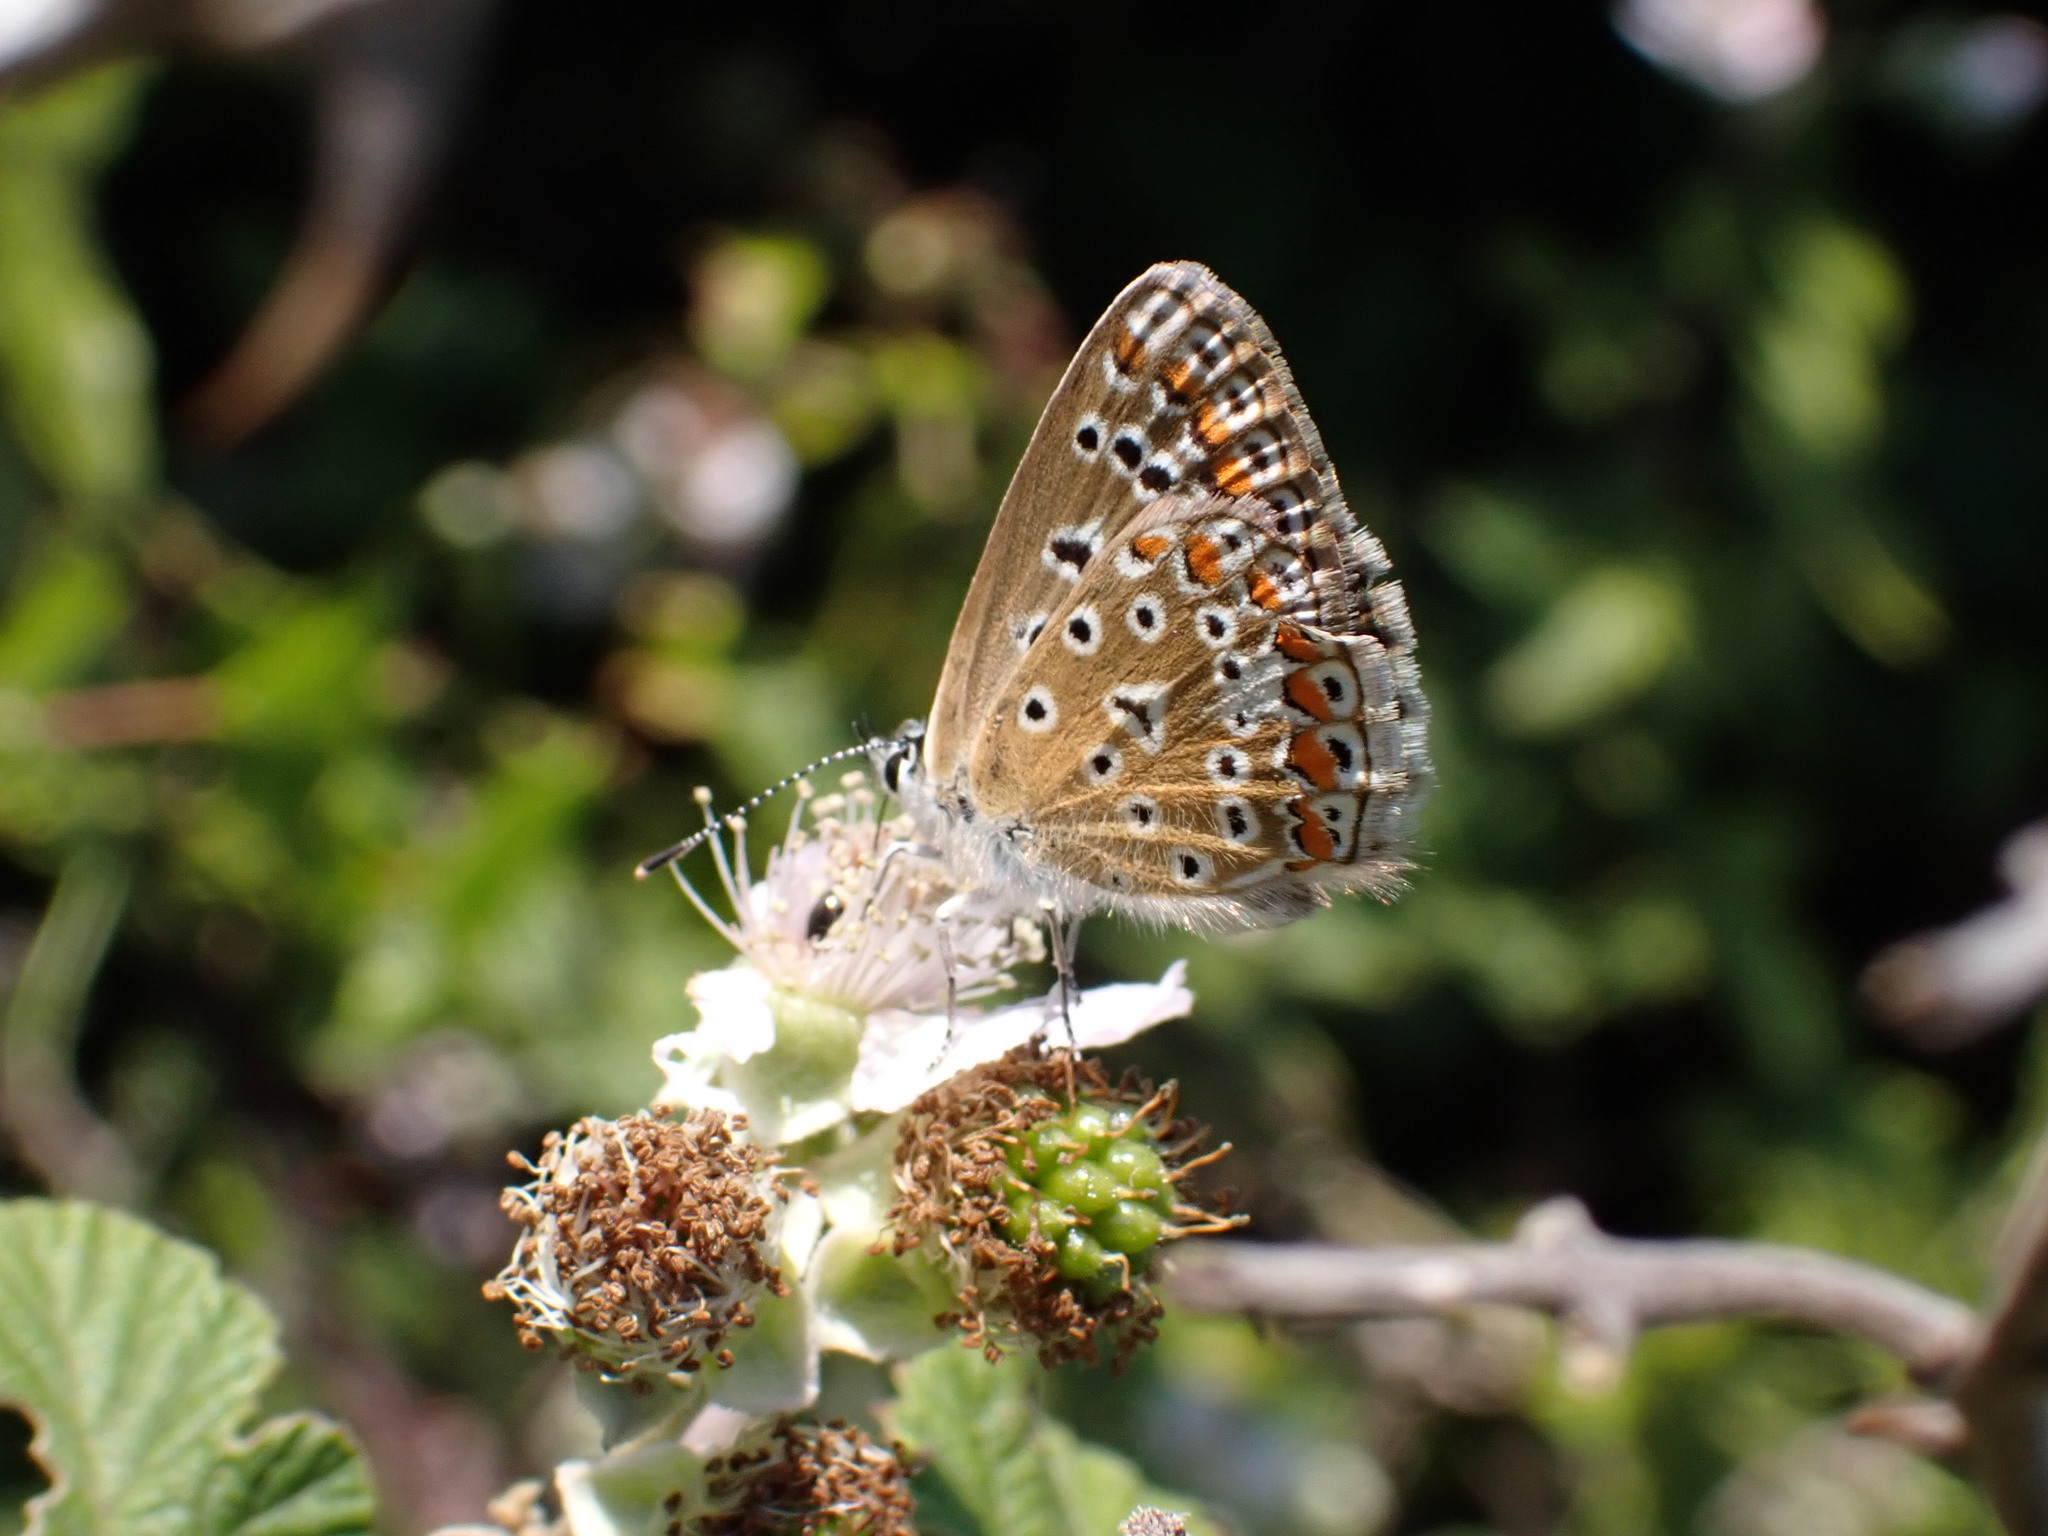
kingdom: Animalia
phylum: Arthropoda
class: Insecta
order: Lepidoptera
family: Lycaenidae
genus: Polyommatus
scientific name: Polyommatus icarus
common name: Common blue
